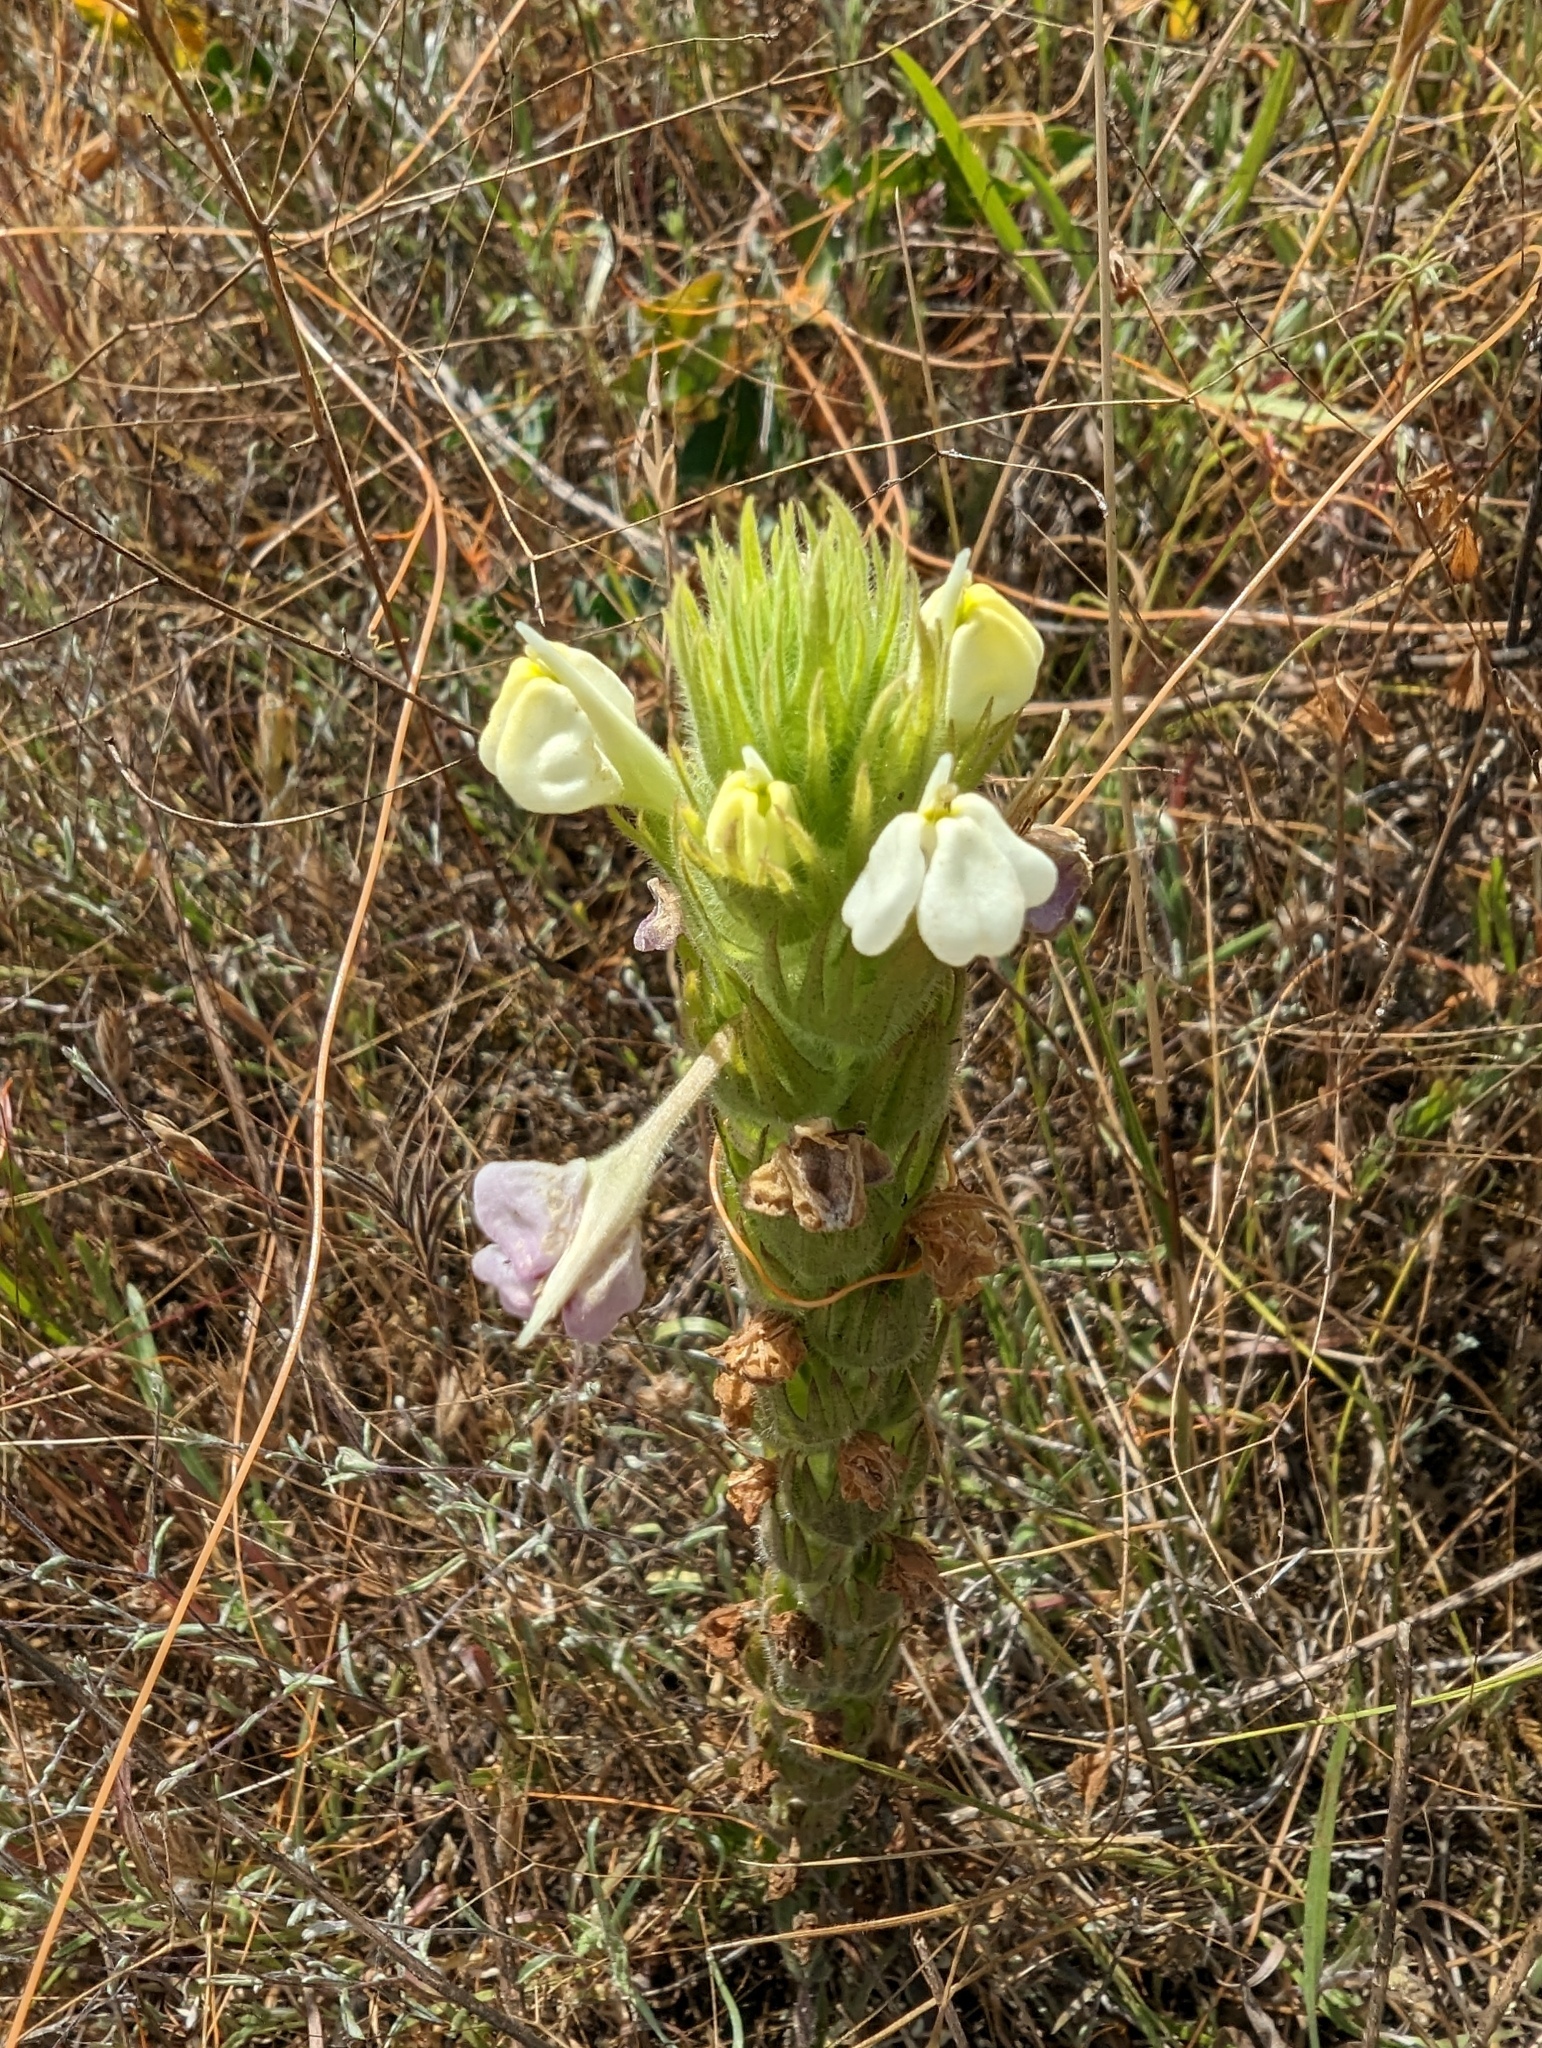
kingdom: Plantae
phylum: Tracheophyta
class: Magnoliopsida
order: Lamiales
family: Orobanchaceae
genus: Castilleja
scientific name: Castilleja rubicundula
